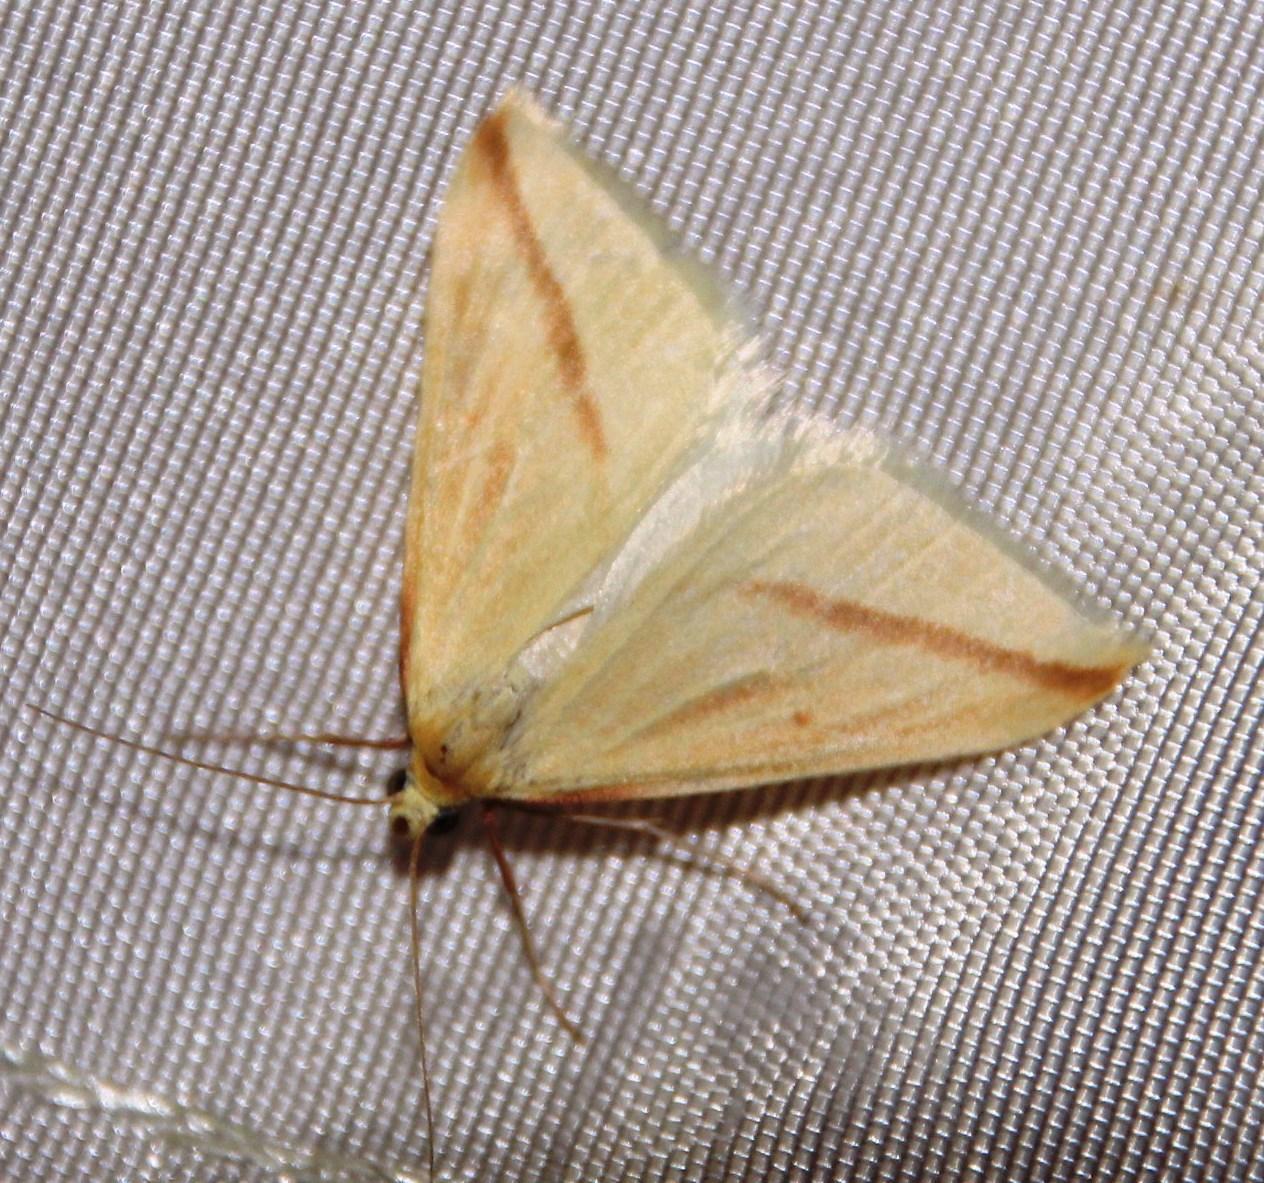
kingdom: Animalia
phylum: Arthropoda
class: Insecta
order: Lepidoptera
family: Geometridae
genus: Rhodometra
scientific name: Rhodometra sacraria
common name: Vestal
